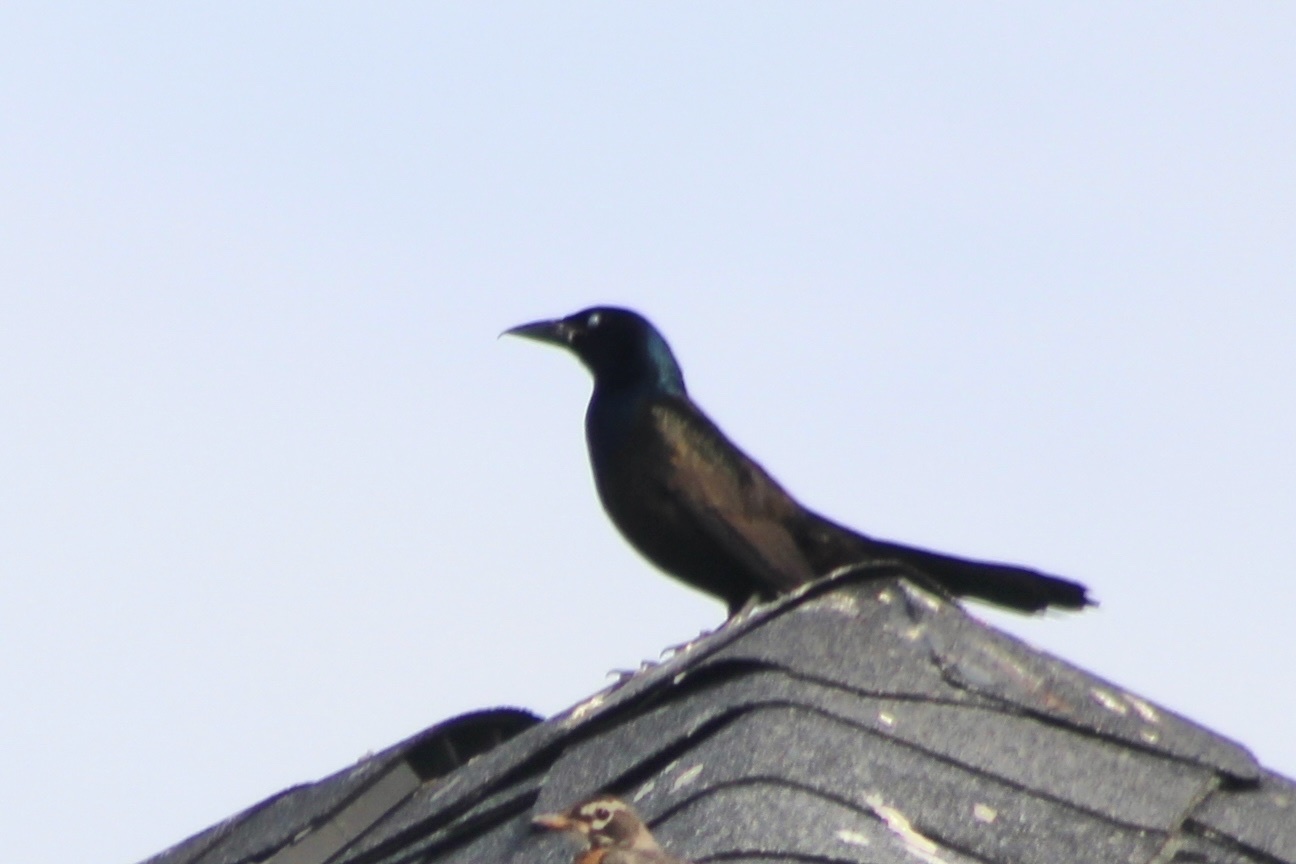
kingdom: Animalia
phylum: Chordata
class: Aves
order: Passeriformes
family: Icteridae
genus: Quiscalus
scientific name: Quiscalus quiscula
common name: Common grackle
